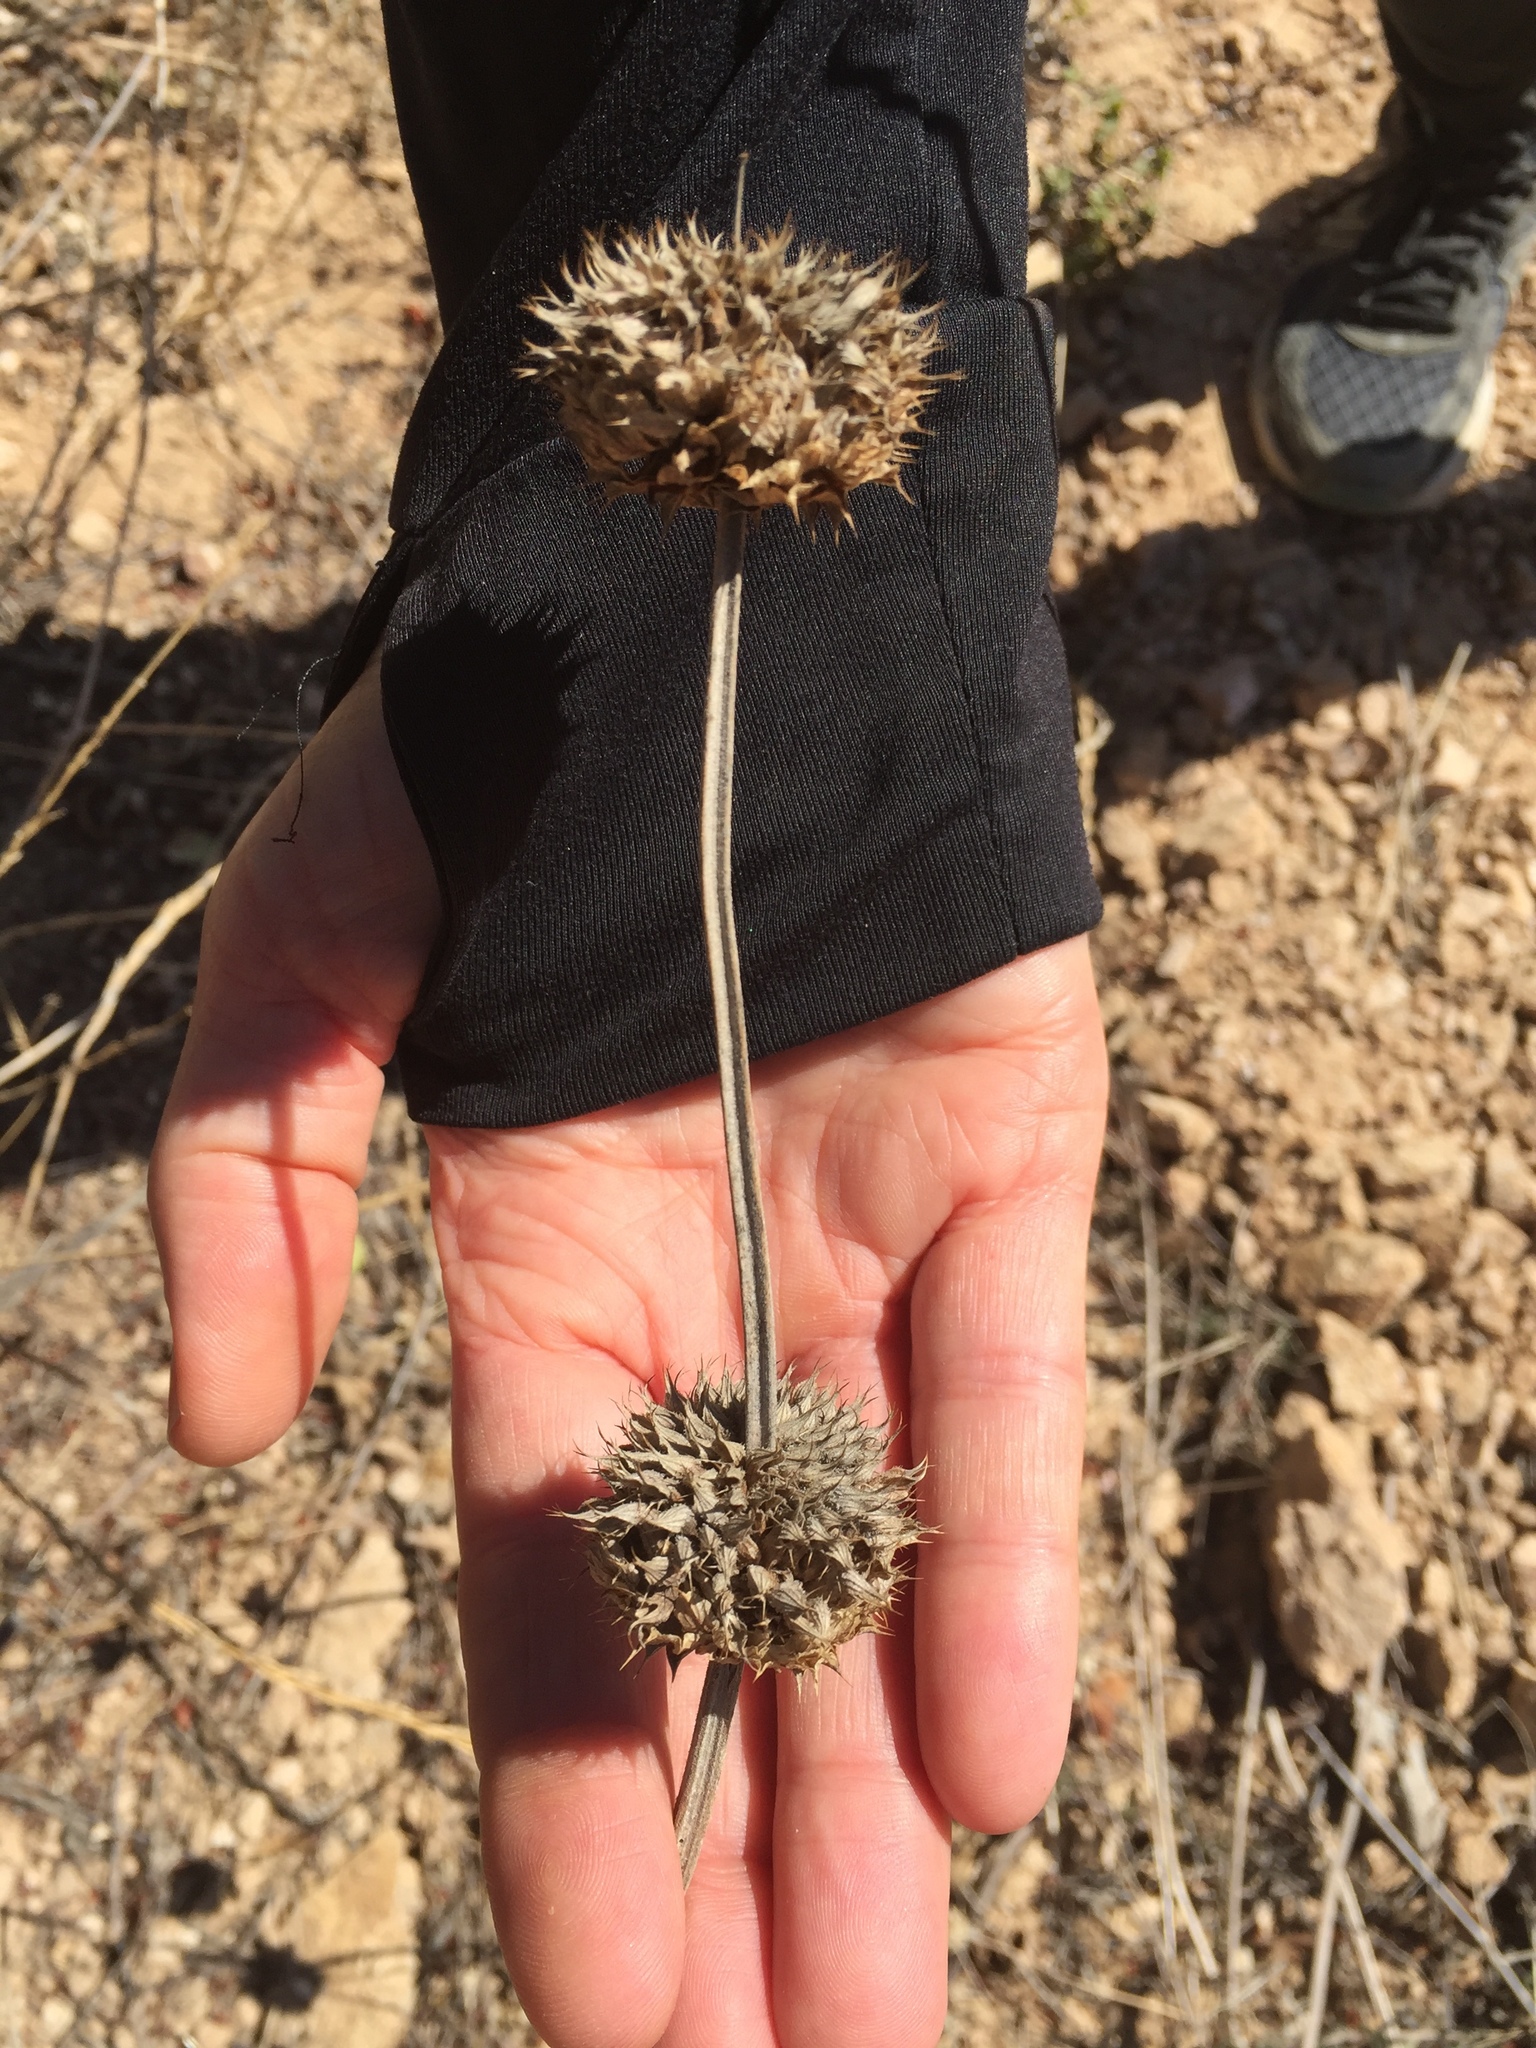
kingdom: Plantae
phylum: Tracheophyta
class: Magnoliopsida
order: Lamiales
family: Lamiaceae
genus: Salvia
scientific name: Salvia columbariae
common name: Chia
